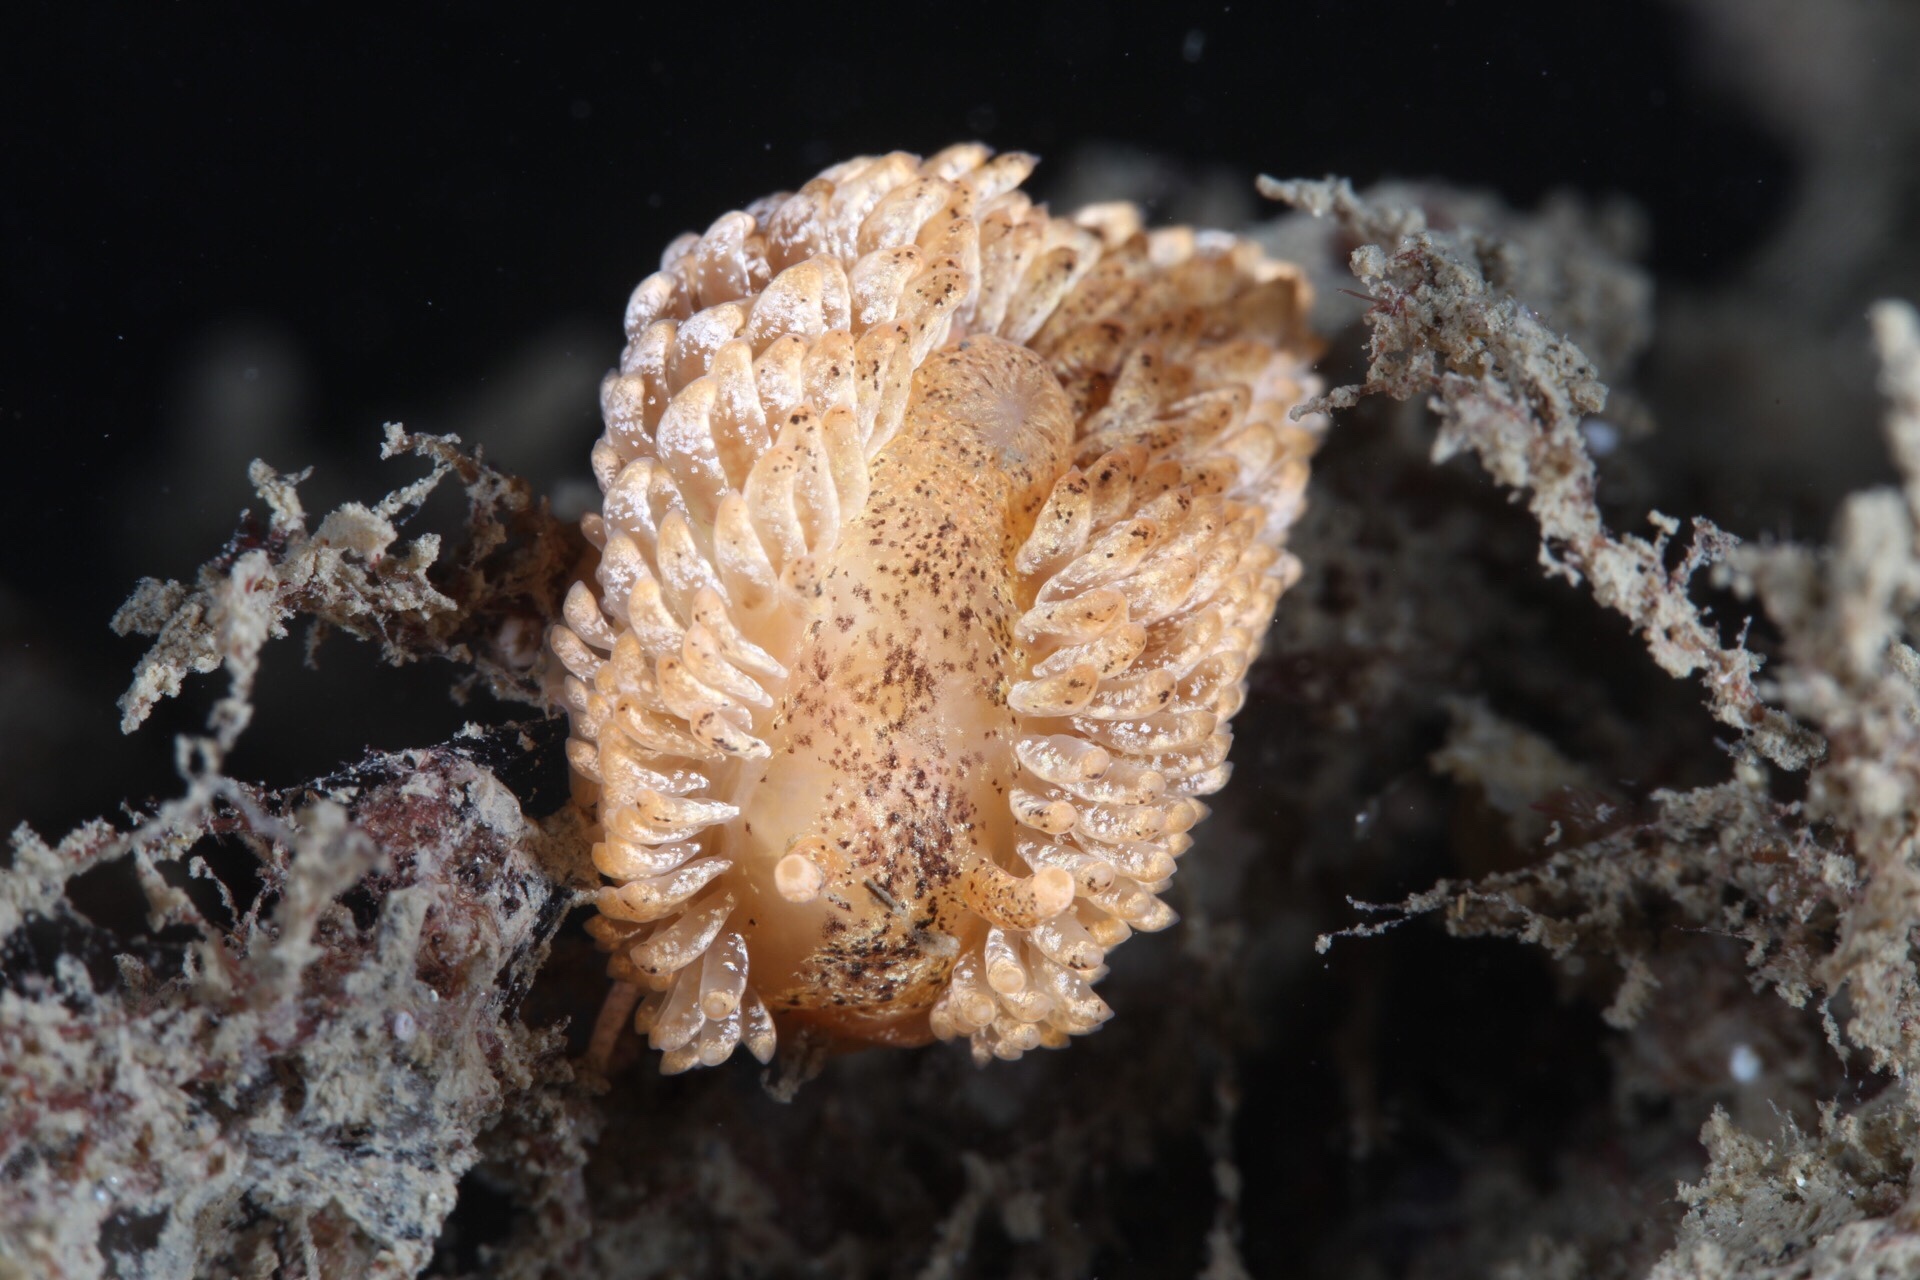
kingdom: Animalia
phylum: Mollusca
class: Gastropoda
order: Nudibranchia
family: Aeolidiidae
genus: Aeolidia
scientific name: Aeolidia papillosa
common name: Common grey sea slug
